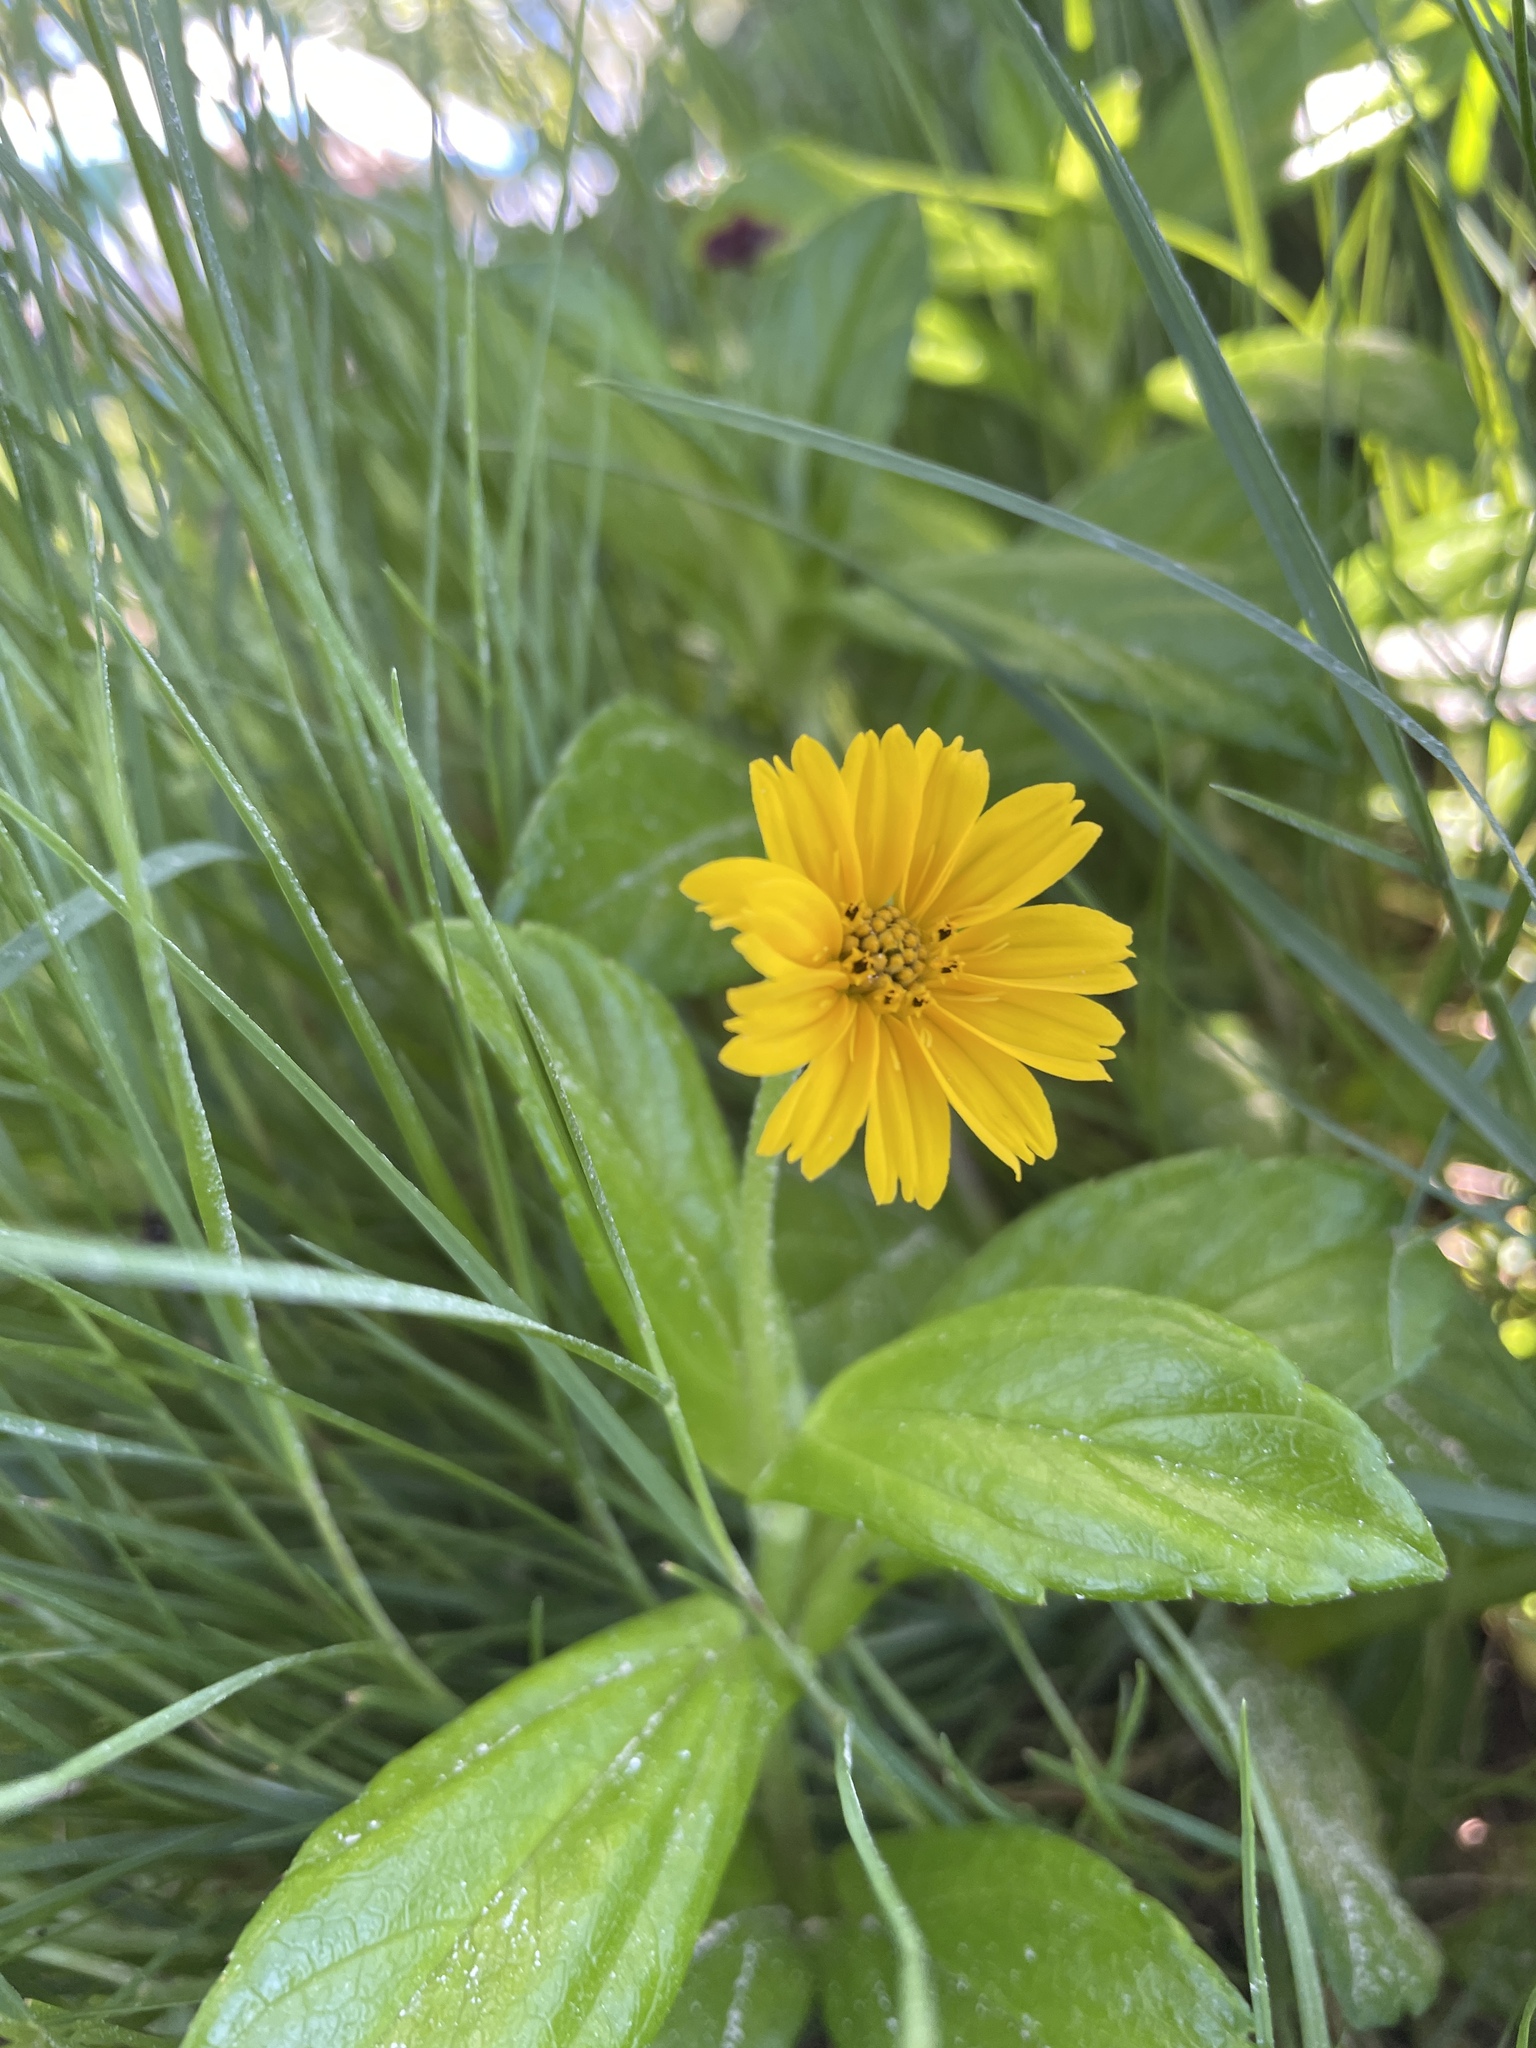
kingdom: Plantae
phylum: Tracheophyta
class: Magnoliopsida
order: Asterales
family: Asteraceae
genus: Sphagneticola
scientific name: Sphagneticola trilobata
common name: Bay biscayne creeping-oxeye
